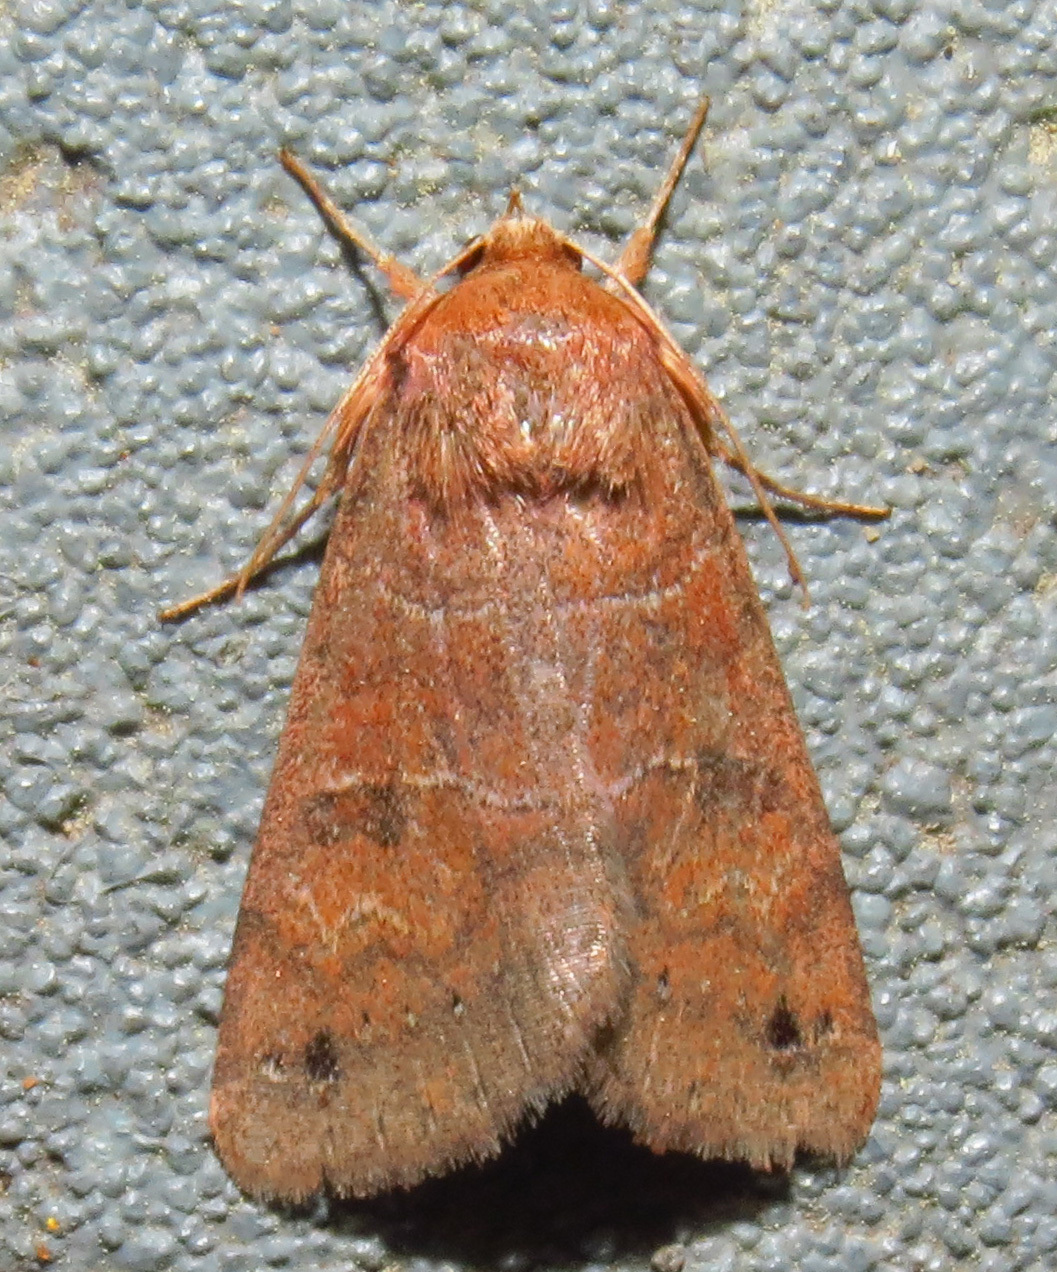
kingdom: Animalia
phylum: Arthropoda
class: Insecta
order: Lepidoptera
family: Erebidae
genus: Cissusa
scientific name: Cissusa spadix
